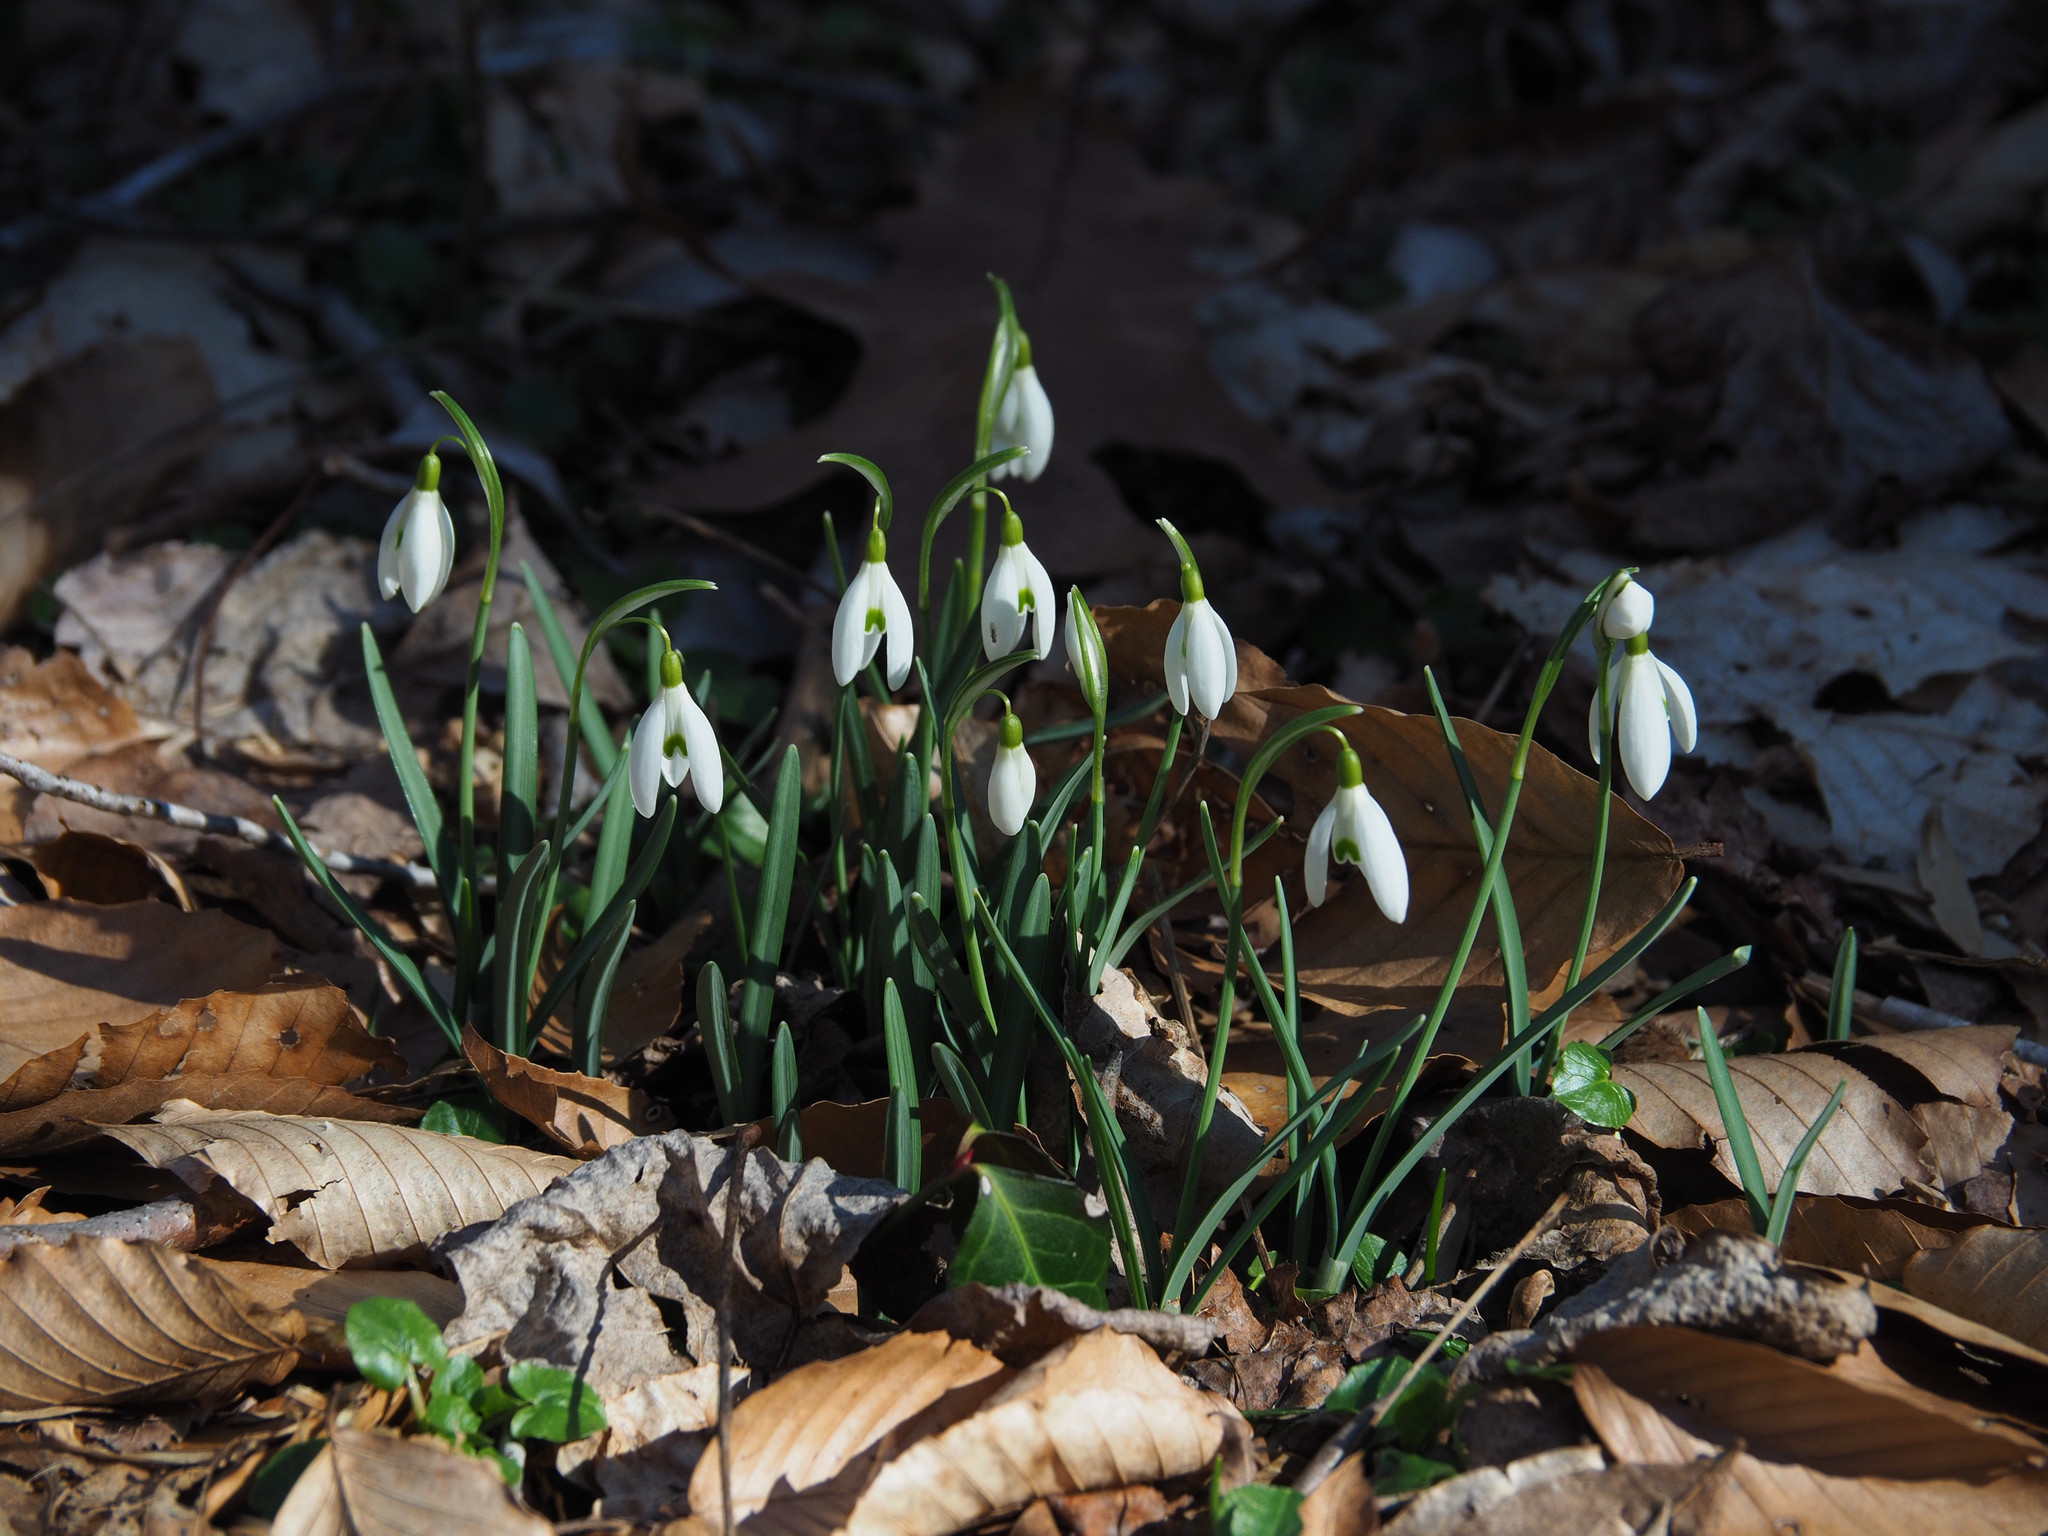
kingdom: Plantae
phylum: Tracheophyta
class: Liliopsida
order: Asparagales
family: Amaryllidaceae
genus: Galanthus
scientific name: Galanthus nivalis
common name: Snowdrop
